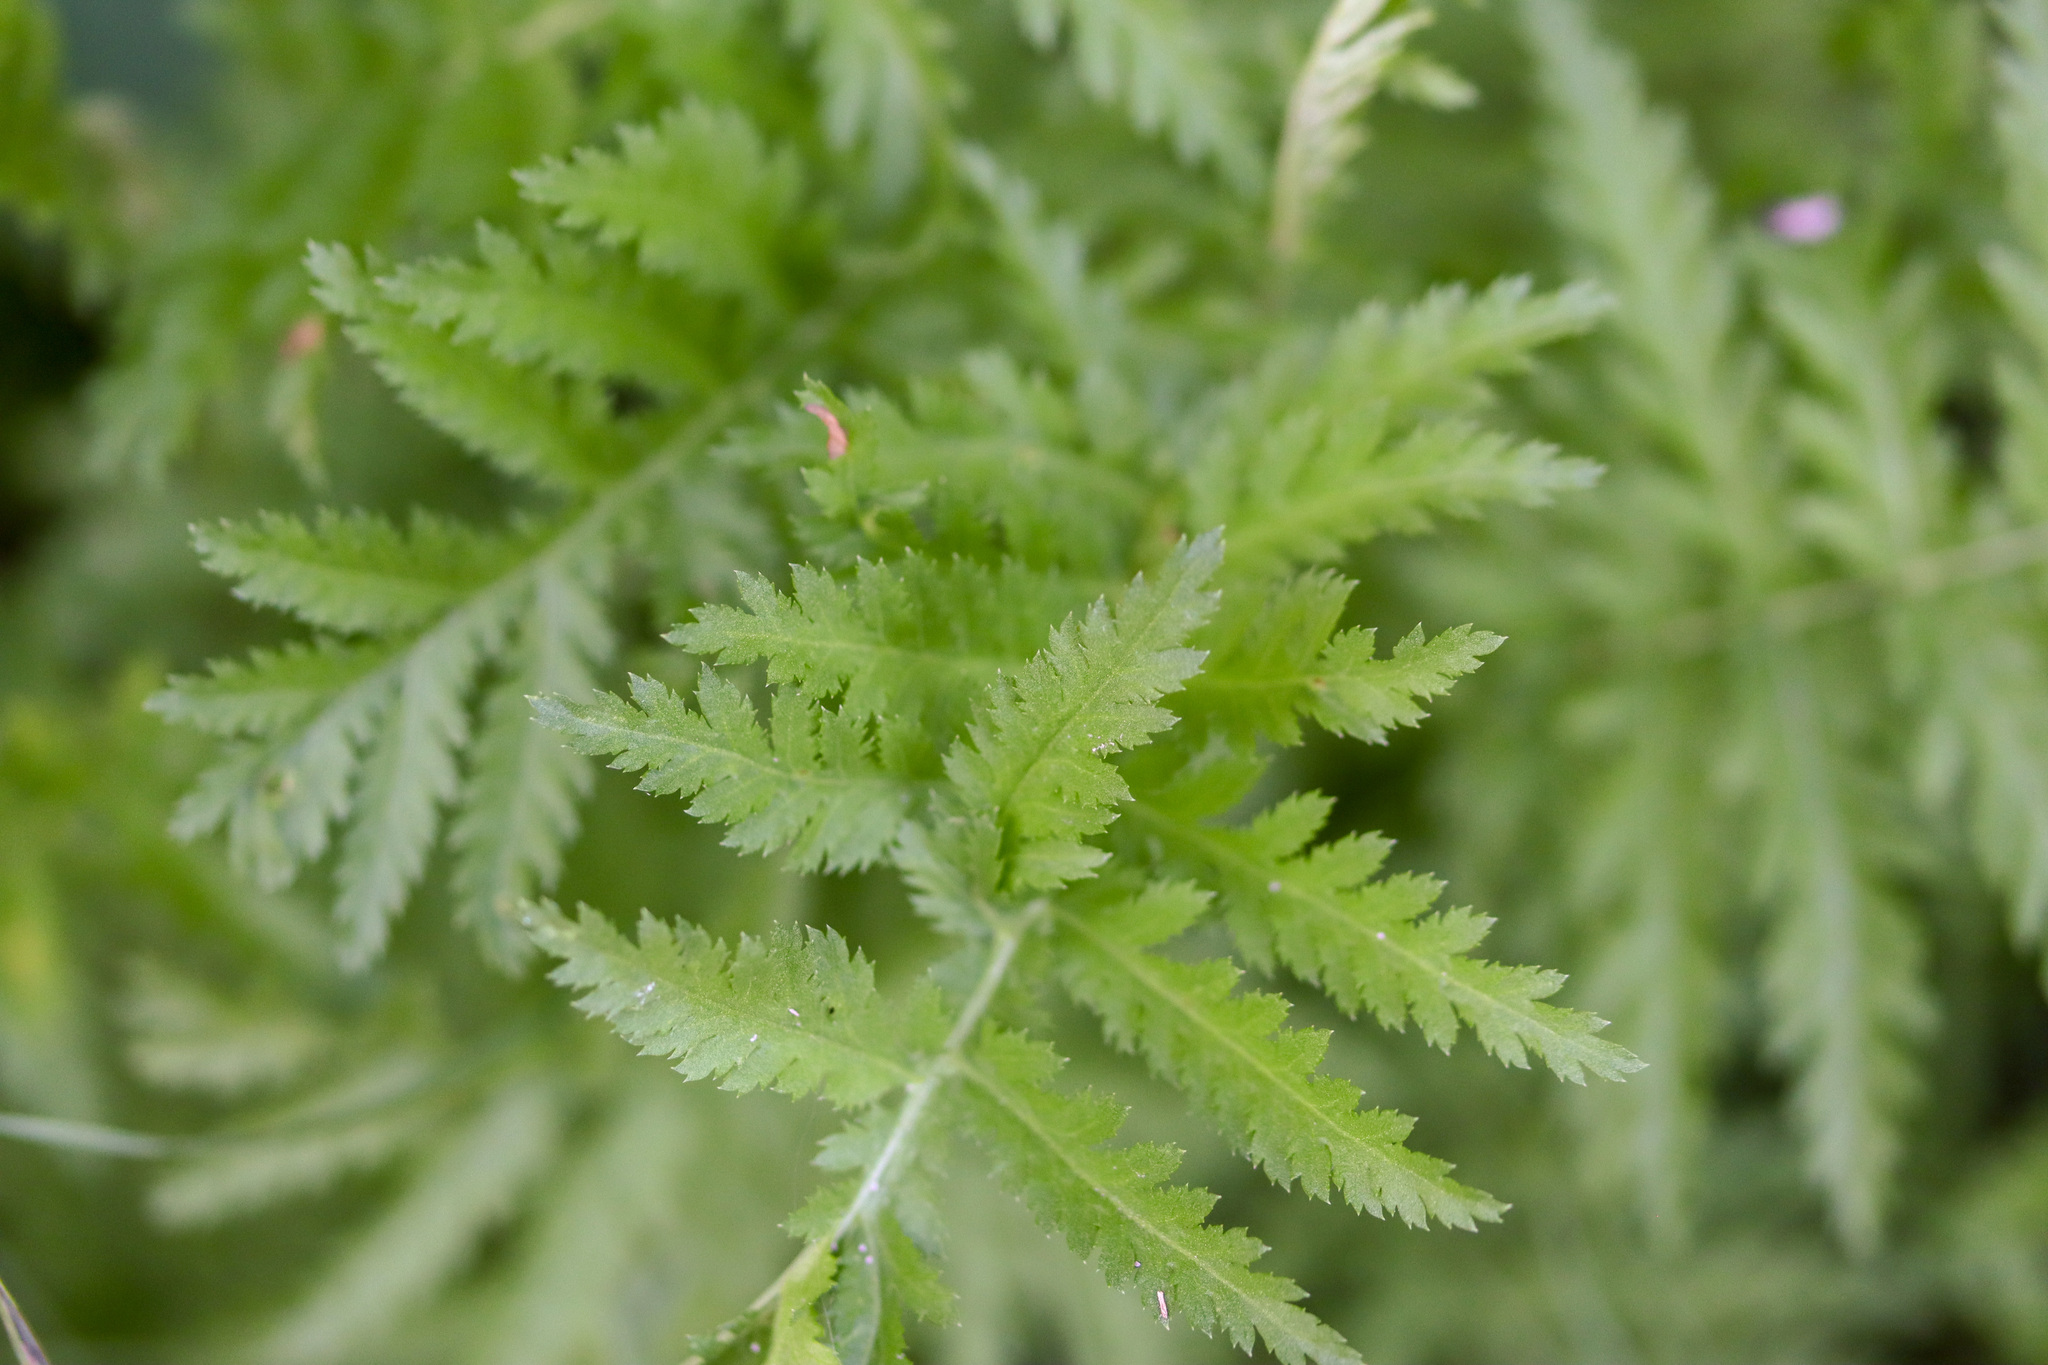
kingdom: Plantae
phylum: Tracheophyta
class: Magnoliopsida
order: Asterales
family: Asteraceae
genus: Tanacetum
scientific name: Tanacetum vulgare
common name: Common tansy
